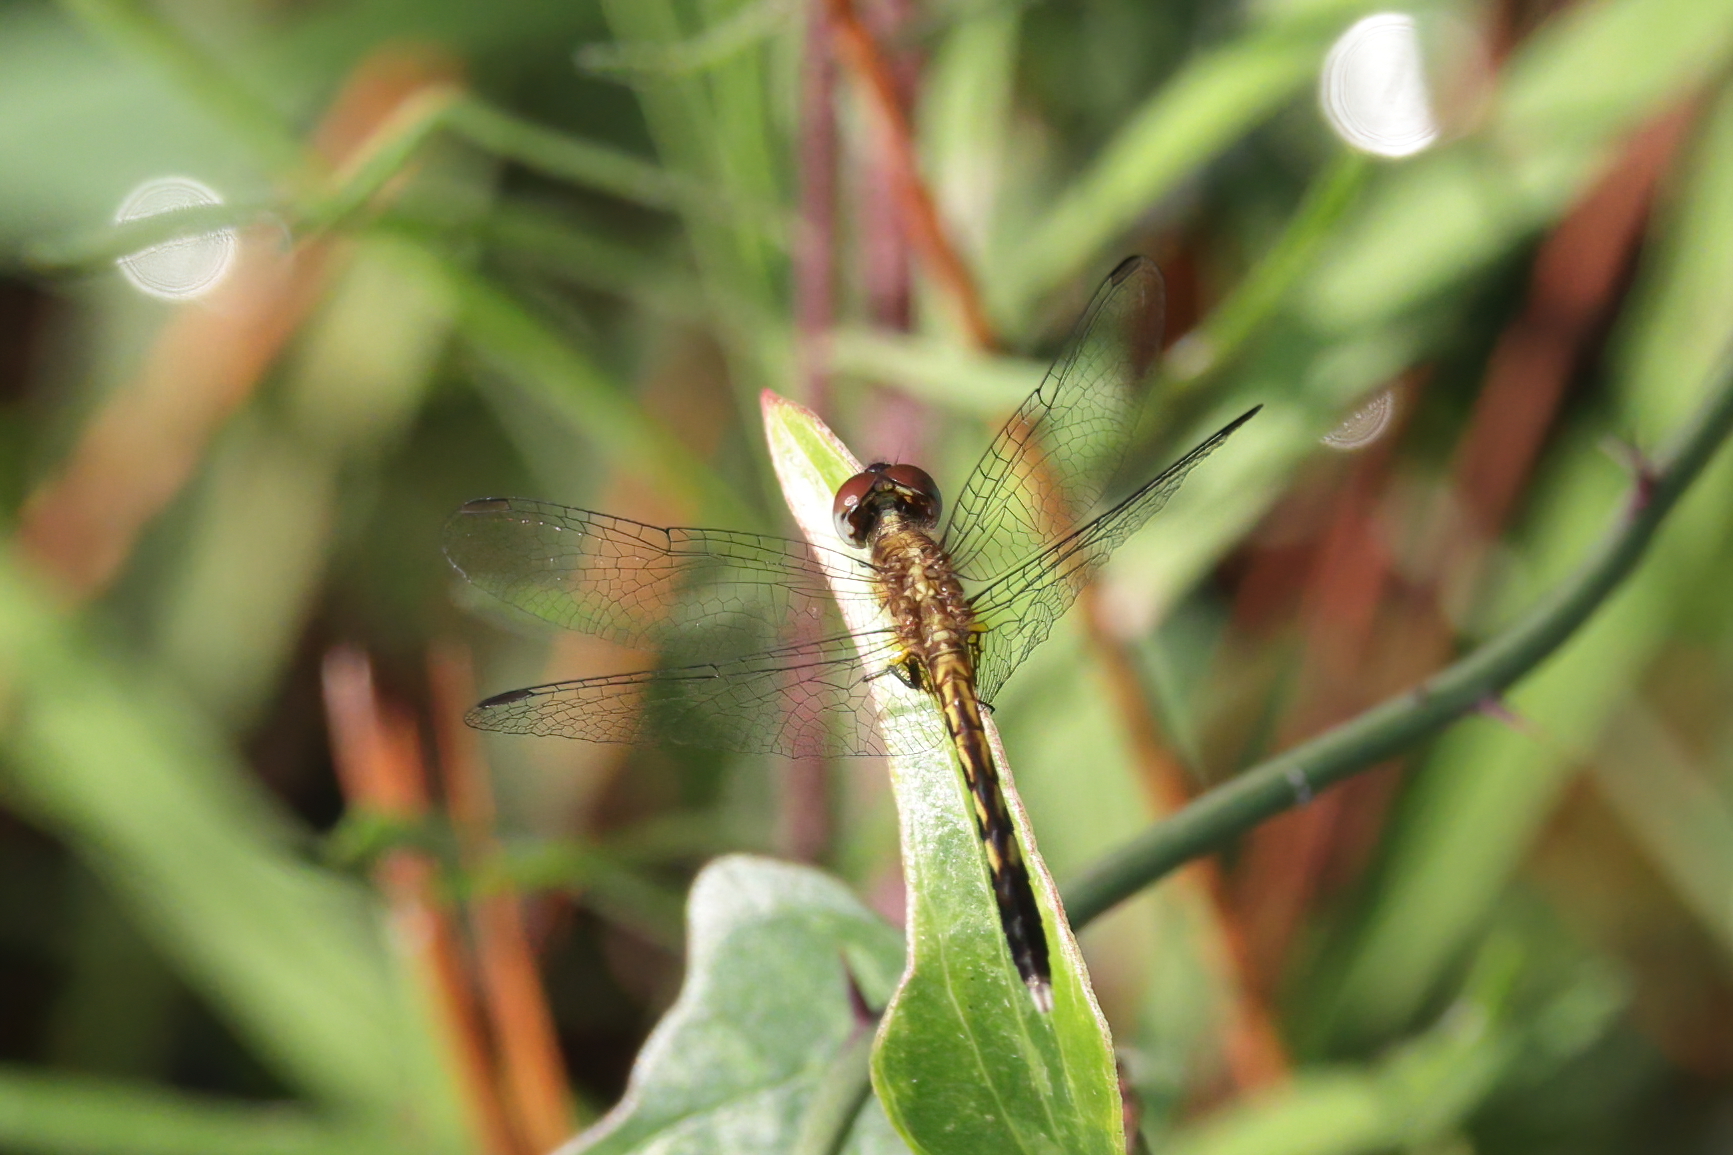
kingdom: Animalia
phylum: Arthropoda
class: Insecta
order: Odonata
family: Libellulidae
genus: Erythrodiplax
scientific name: Erythrodiplax minuscula
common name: Little blue dragonlet
